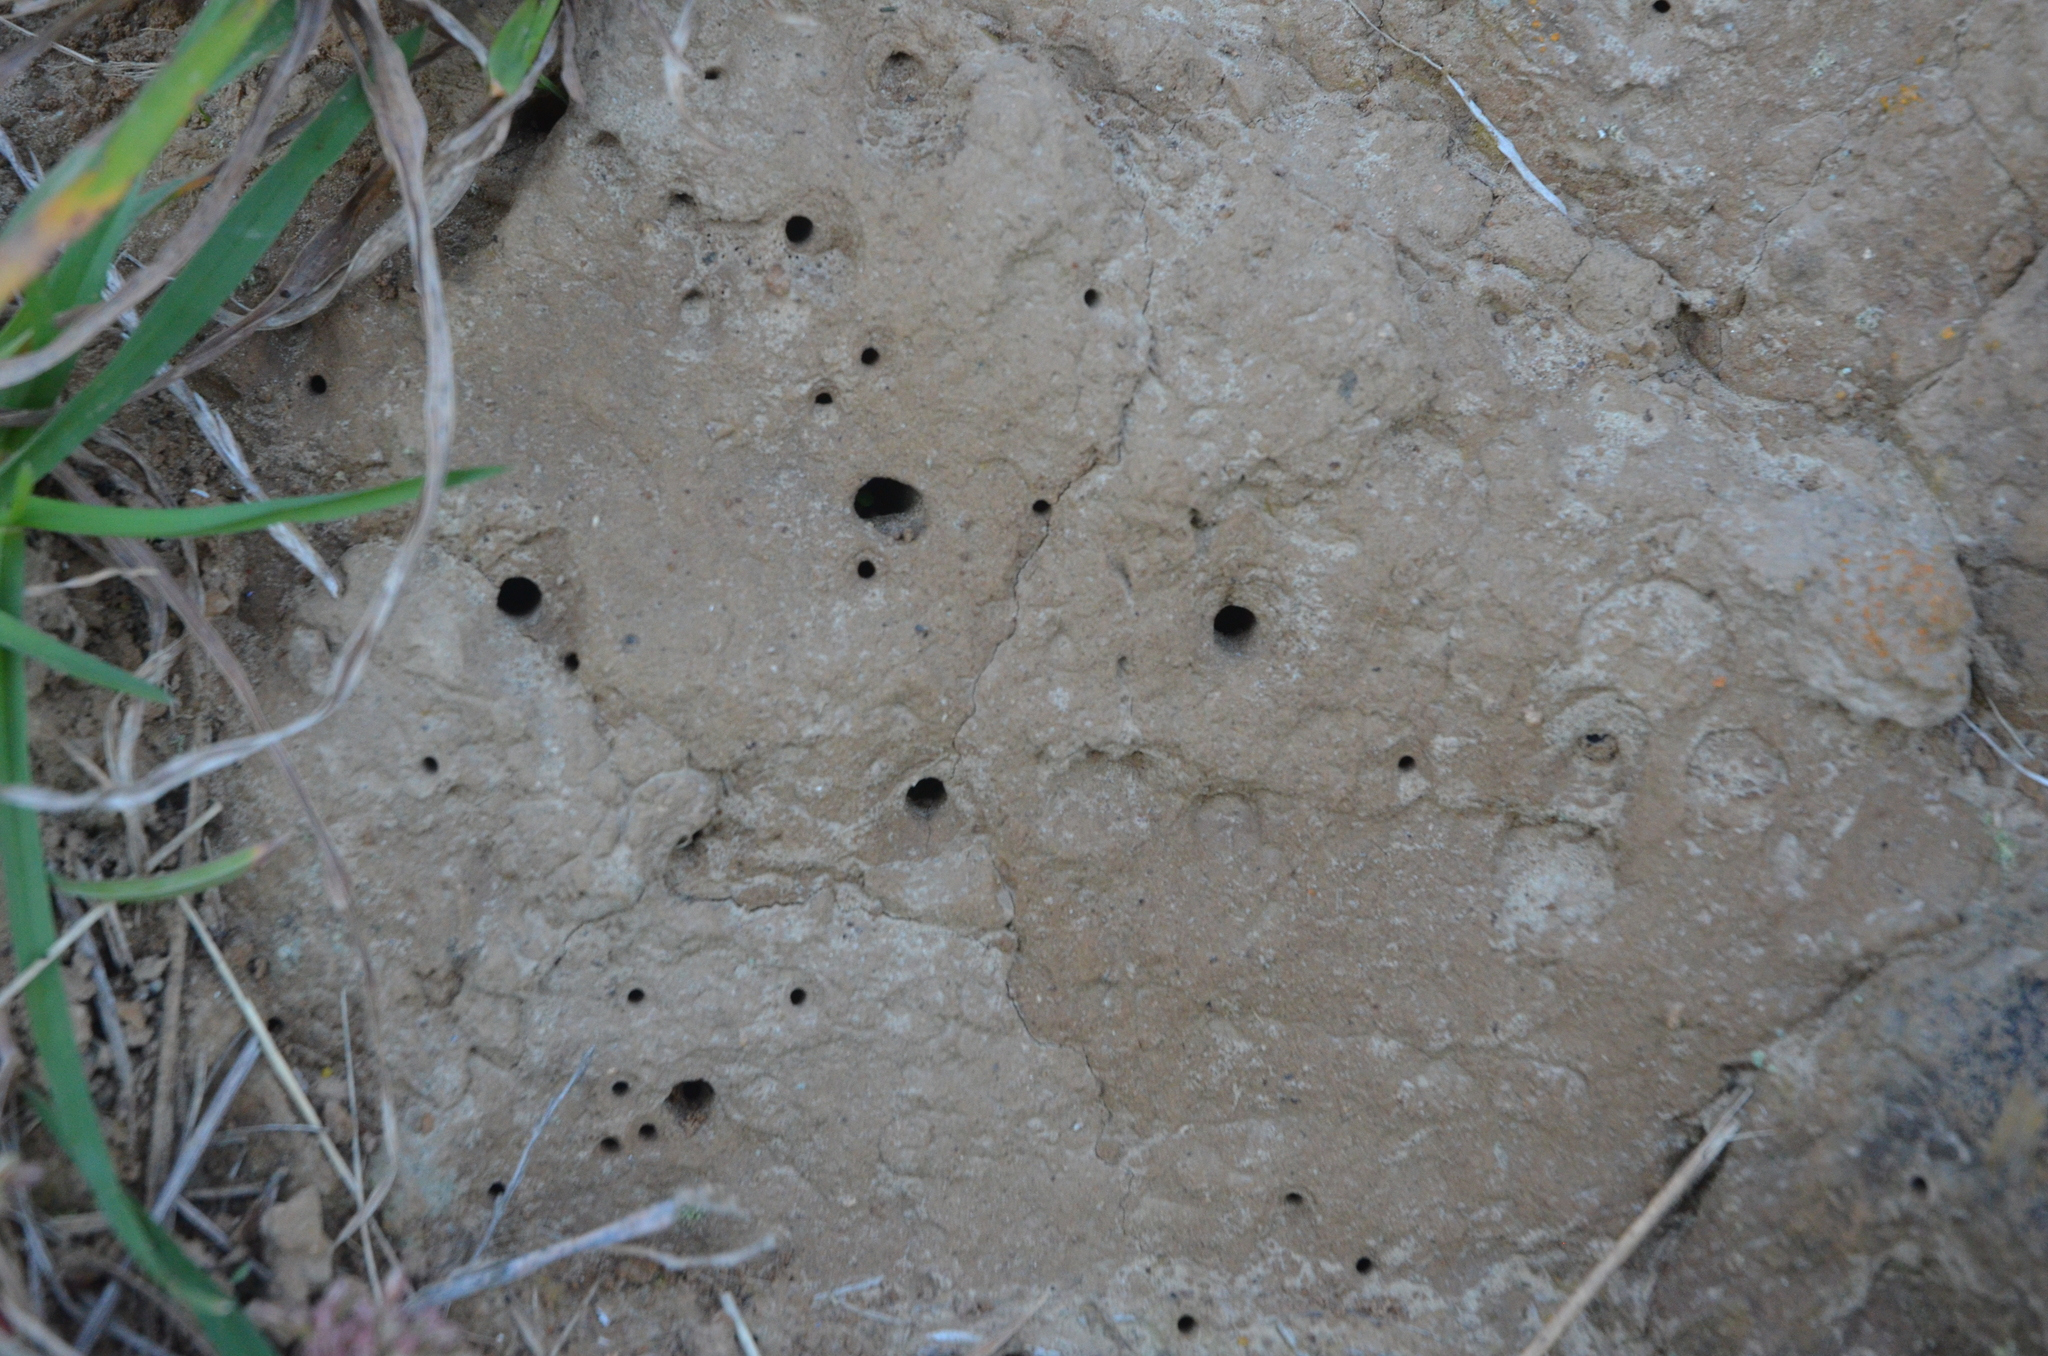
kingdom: Animalia
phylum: Arthropoda
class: Insecta
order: Coleoptera
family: Carabidae
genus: Neocicindela
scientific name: Neocicindela
